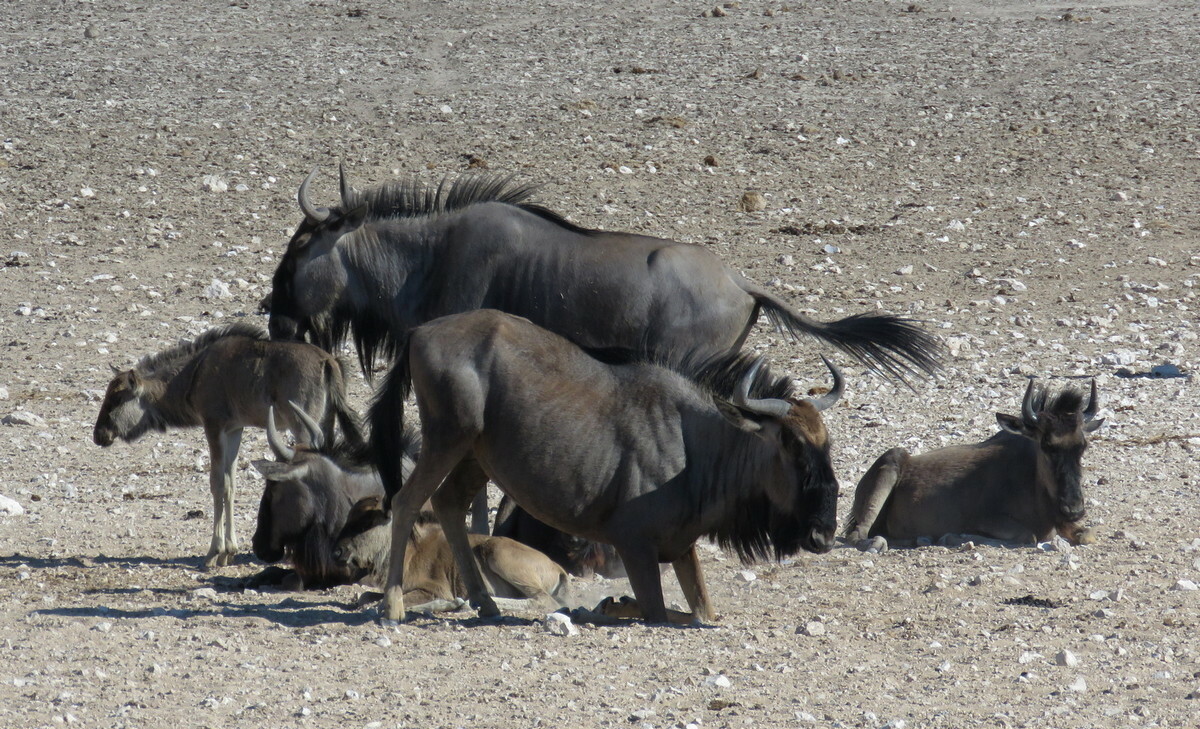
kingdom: Animalia
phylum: Chordata
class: Mammalia
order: Artiodactyla
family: Bovidae
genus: Connochaetes
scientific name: Connochaetes taurinus
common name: Blue wildebeest
